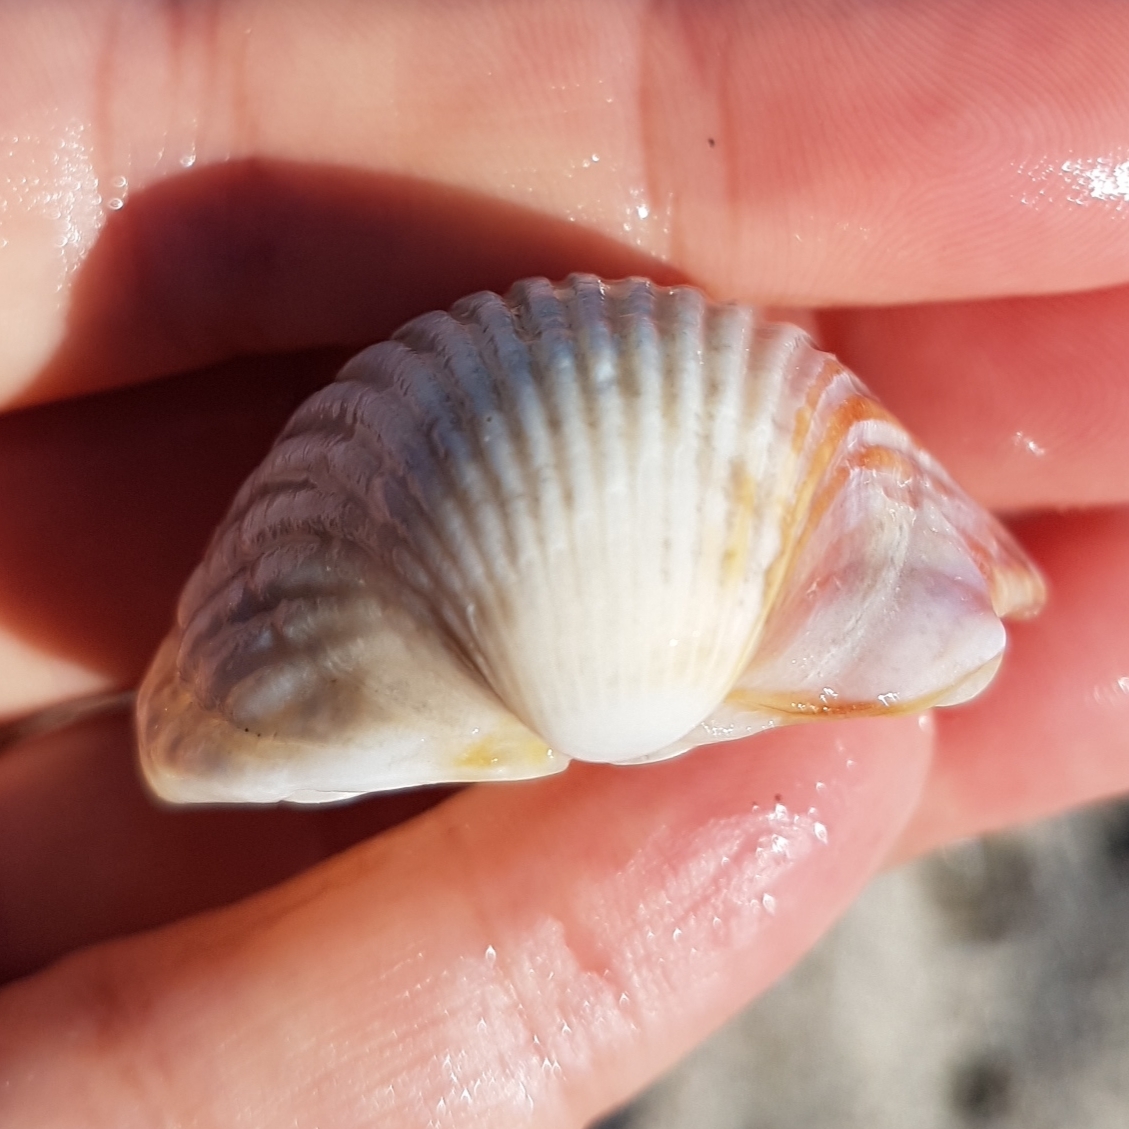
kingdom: Animalia
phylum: Mollusca
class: Bivalvia
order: Cardiida
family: Cardiidae
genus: Cerastoderma
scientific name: Cerastoderma glaucum
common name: Lagoon cockle
